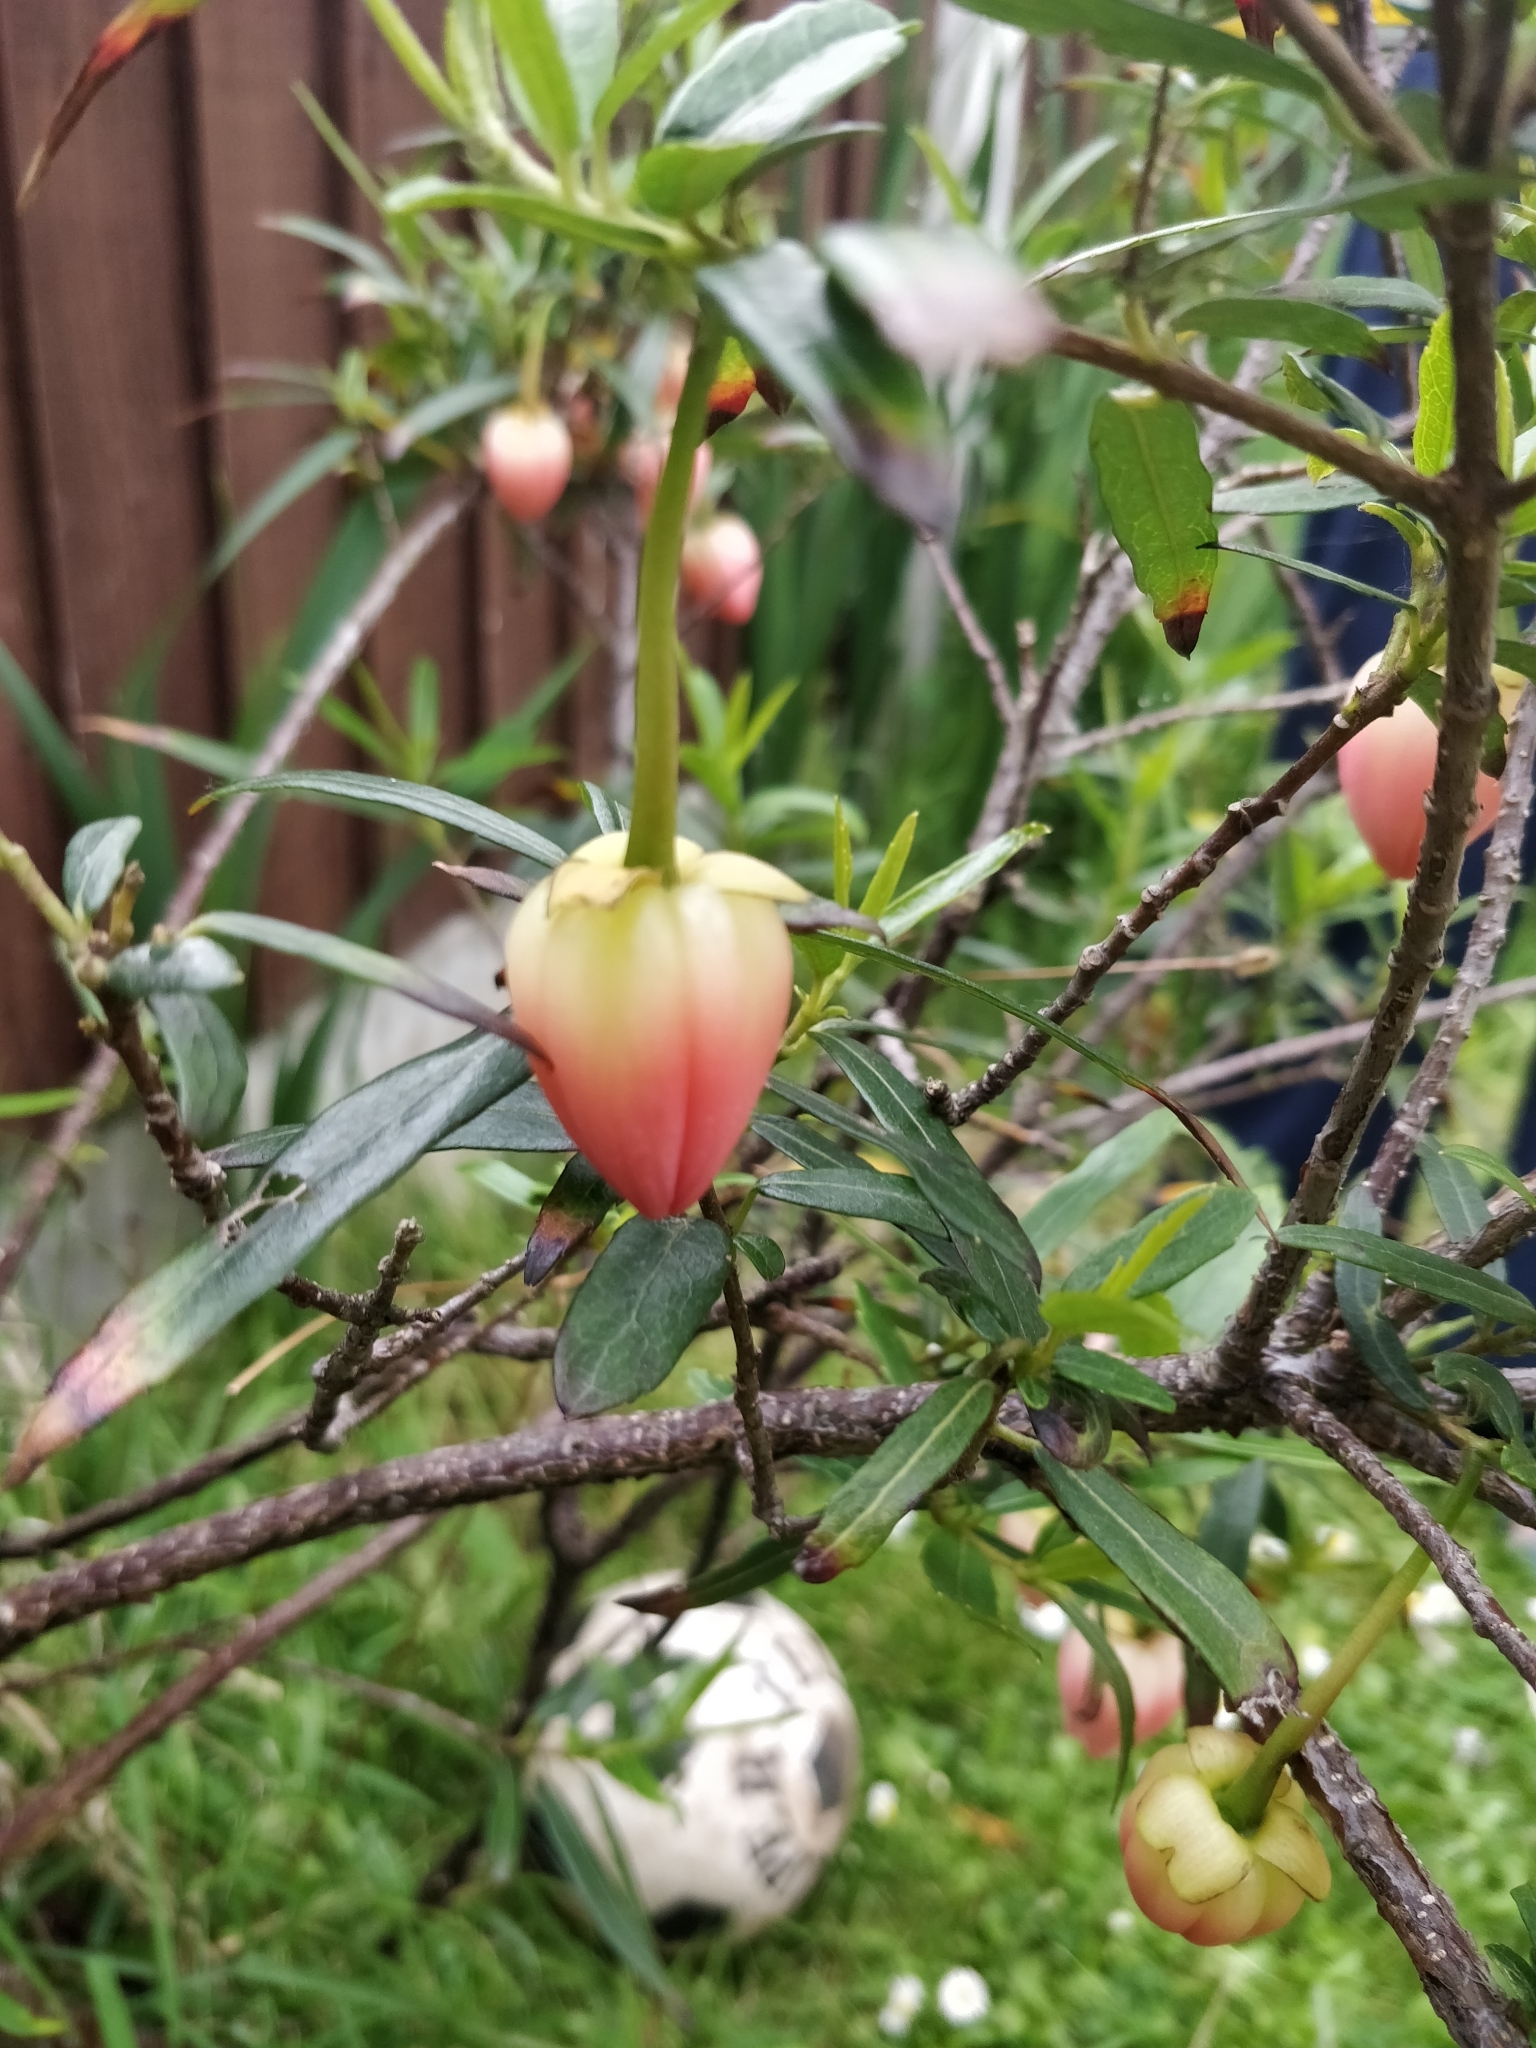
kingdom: Plantae
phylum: Tracheophyta
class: Magnoliopsida
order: Oxalidales
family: Elaeocarpaceae
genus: Crinodendron
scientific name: Crinodendron hookerianum
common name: Lanterntree
